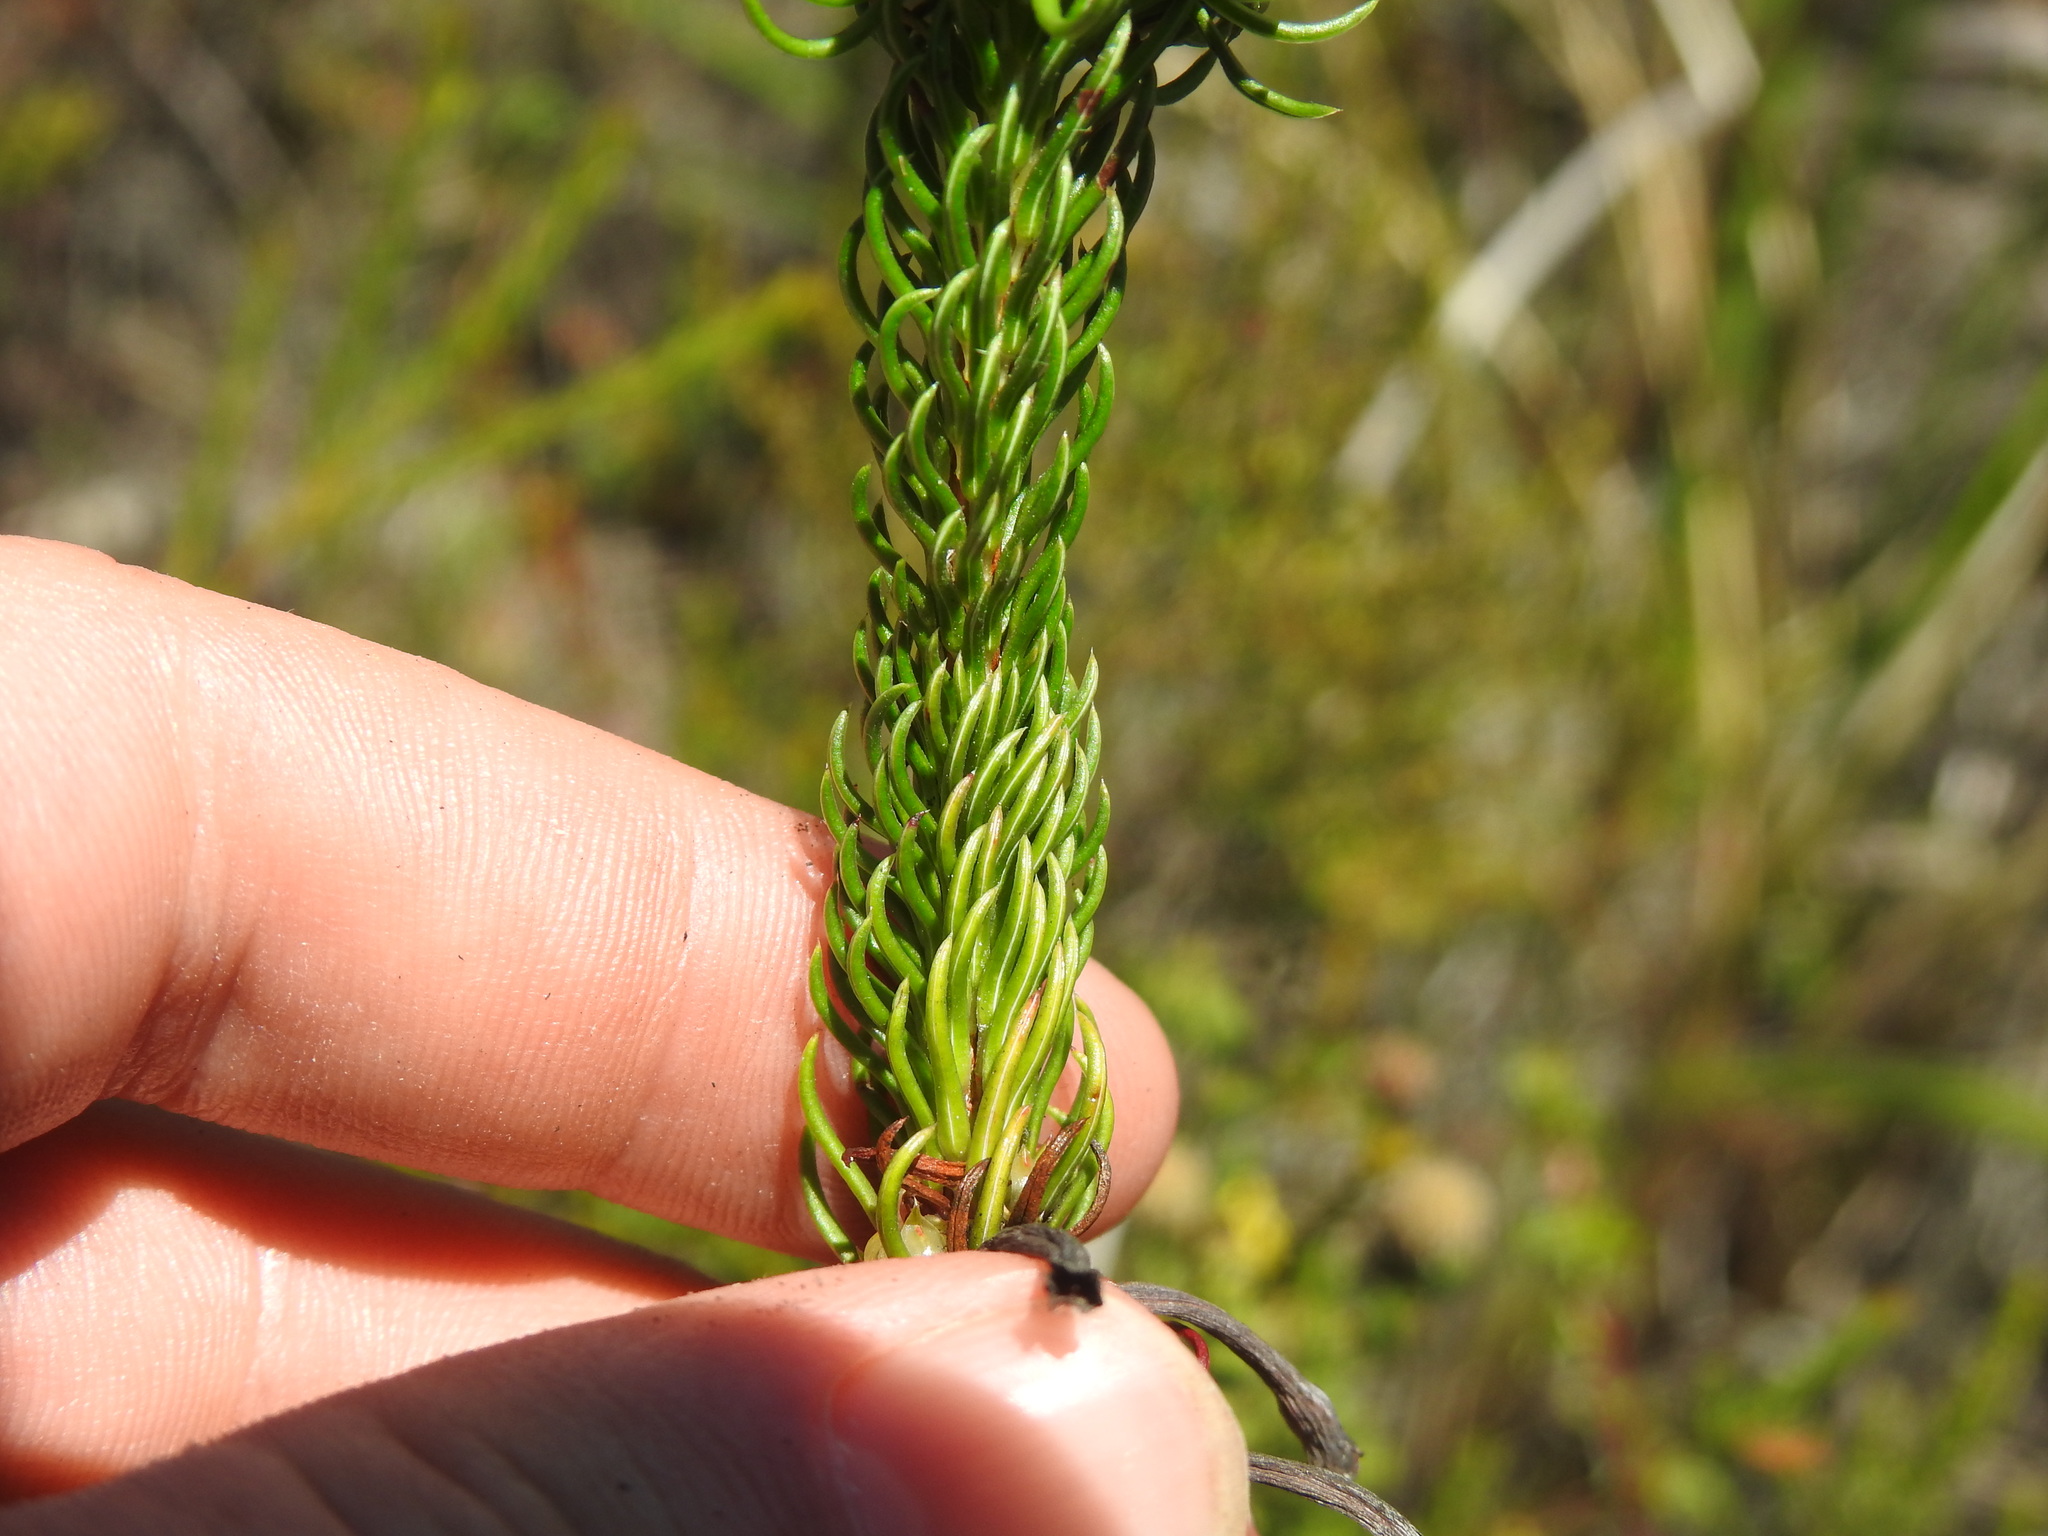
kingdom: Plantae
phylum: Tracheophyta
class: Magnoliopsida
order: Ericales
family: Ericaceae
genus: Erica
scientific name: Erica sessiliflora
